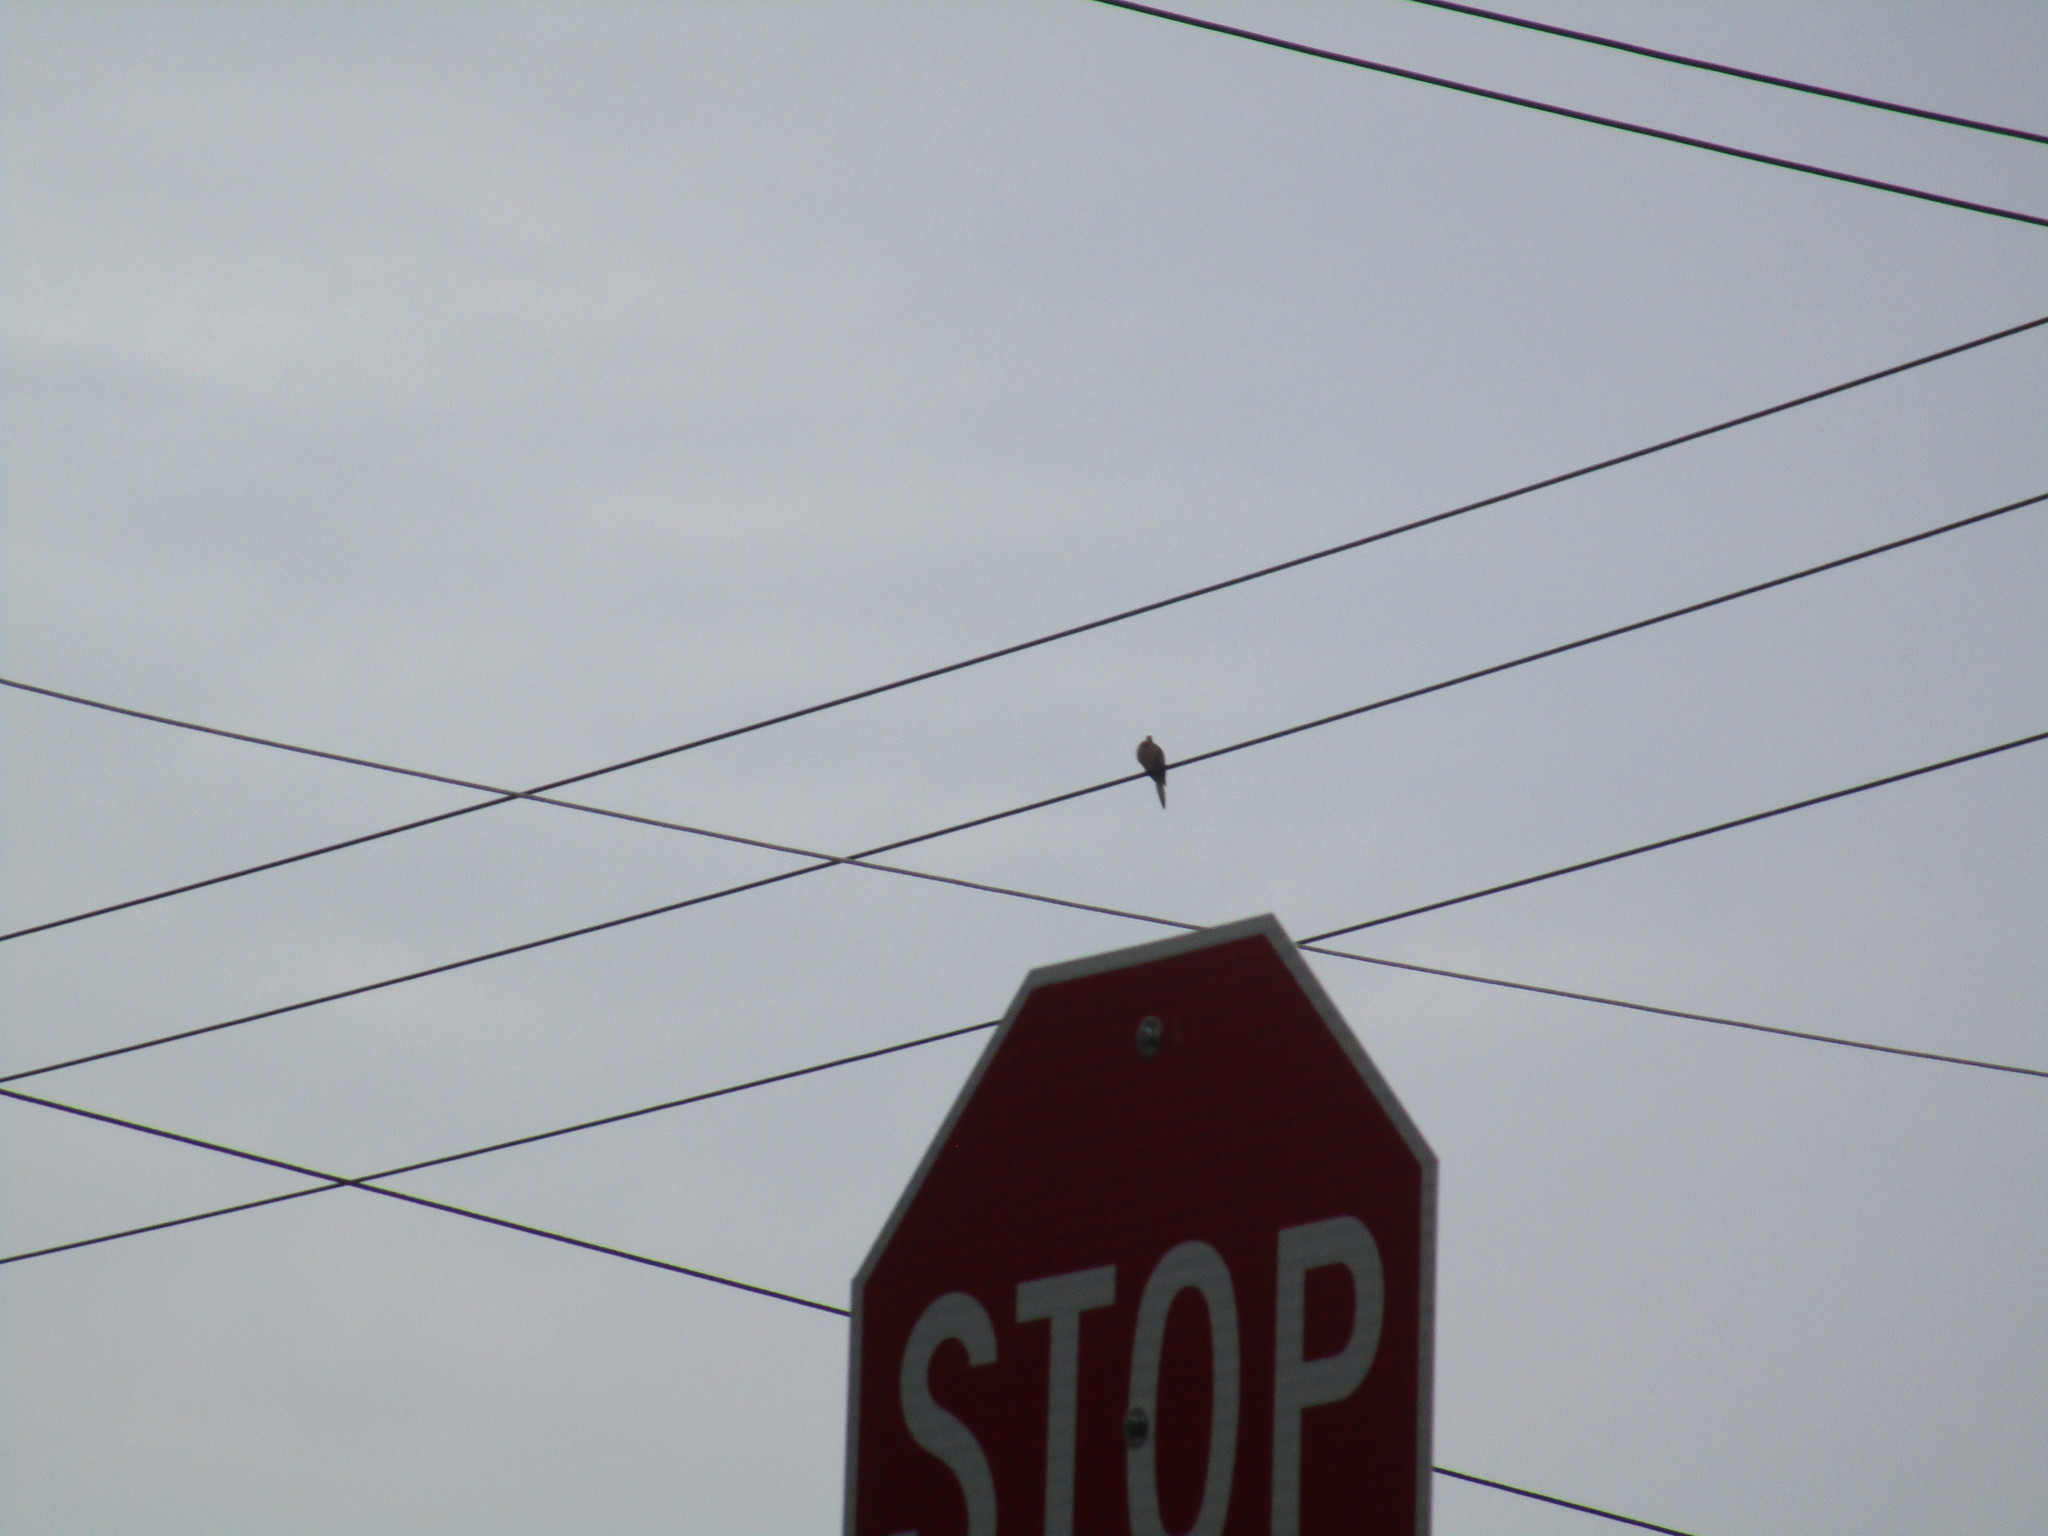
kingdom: Animalia
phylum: Chordata
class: Aves
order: Columbiformes
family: Columbidae
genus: Zenaida
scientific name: Zenaida macroura
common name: Mourning dove
